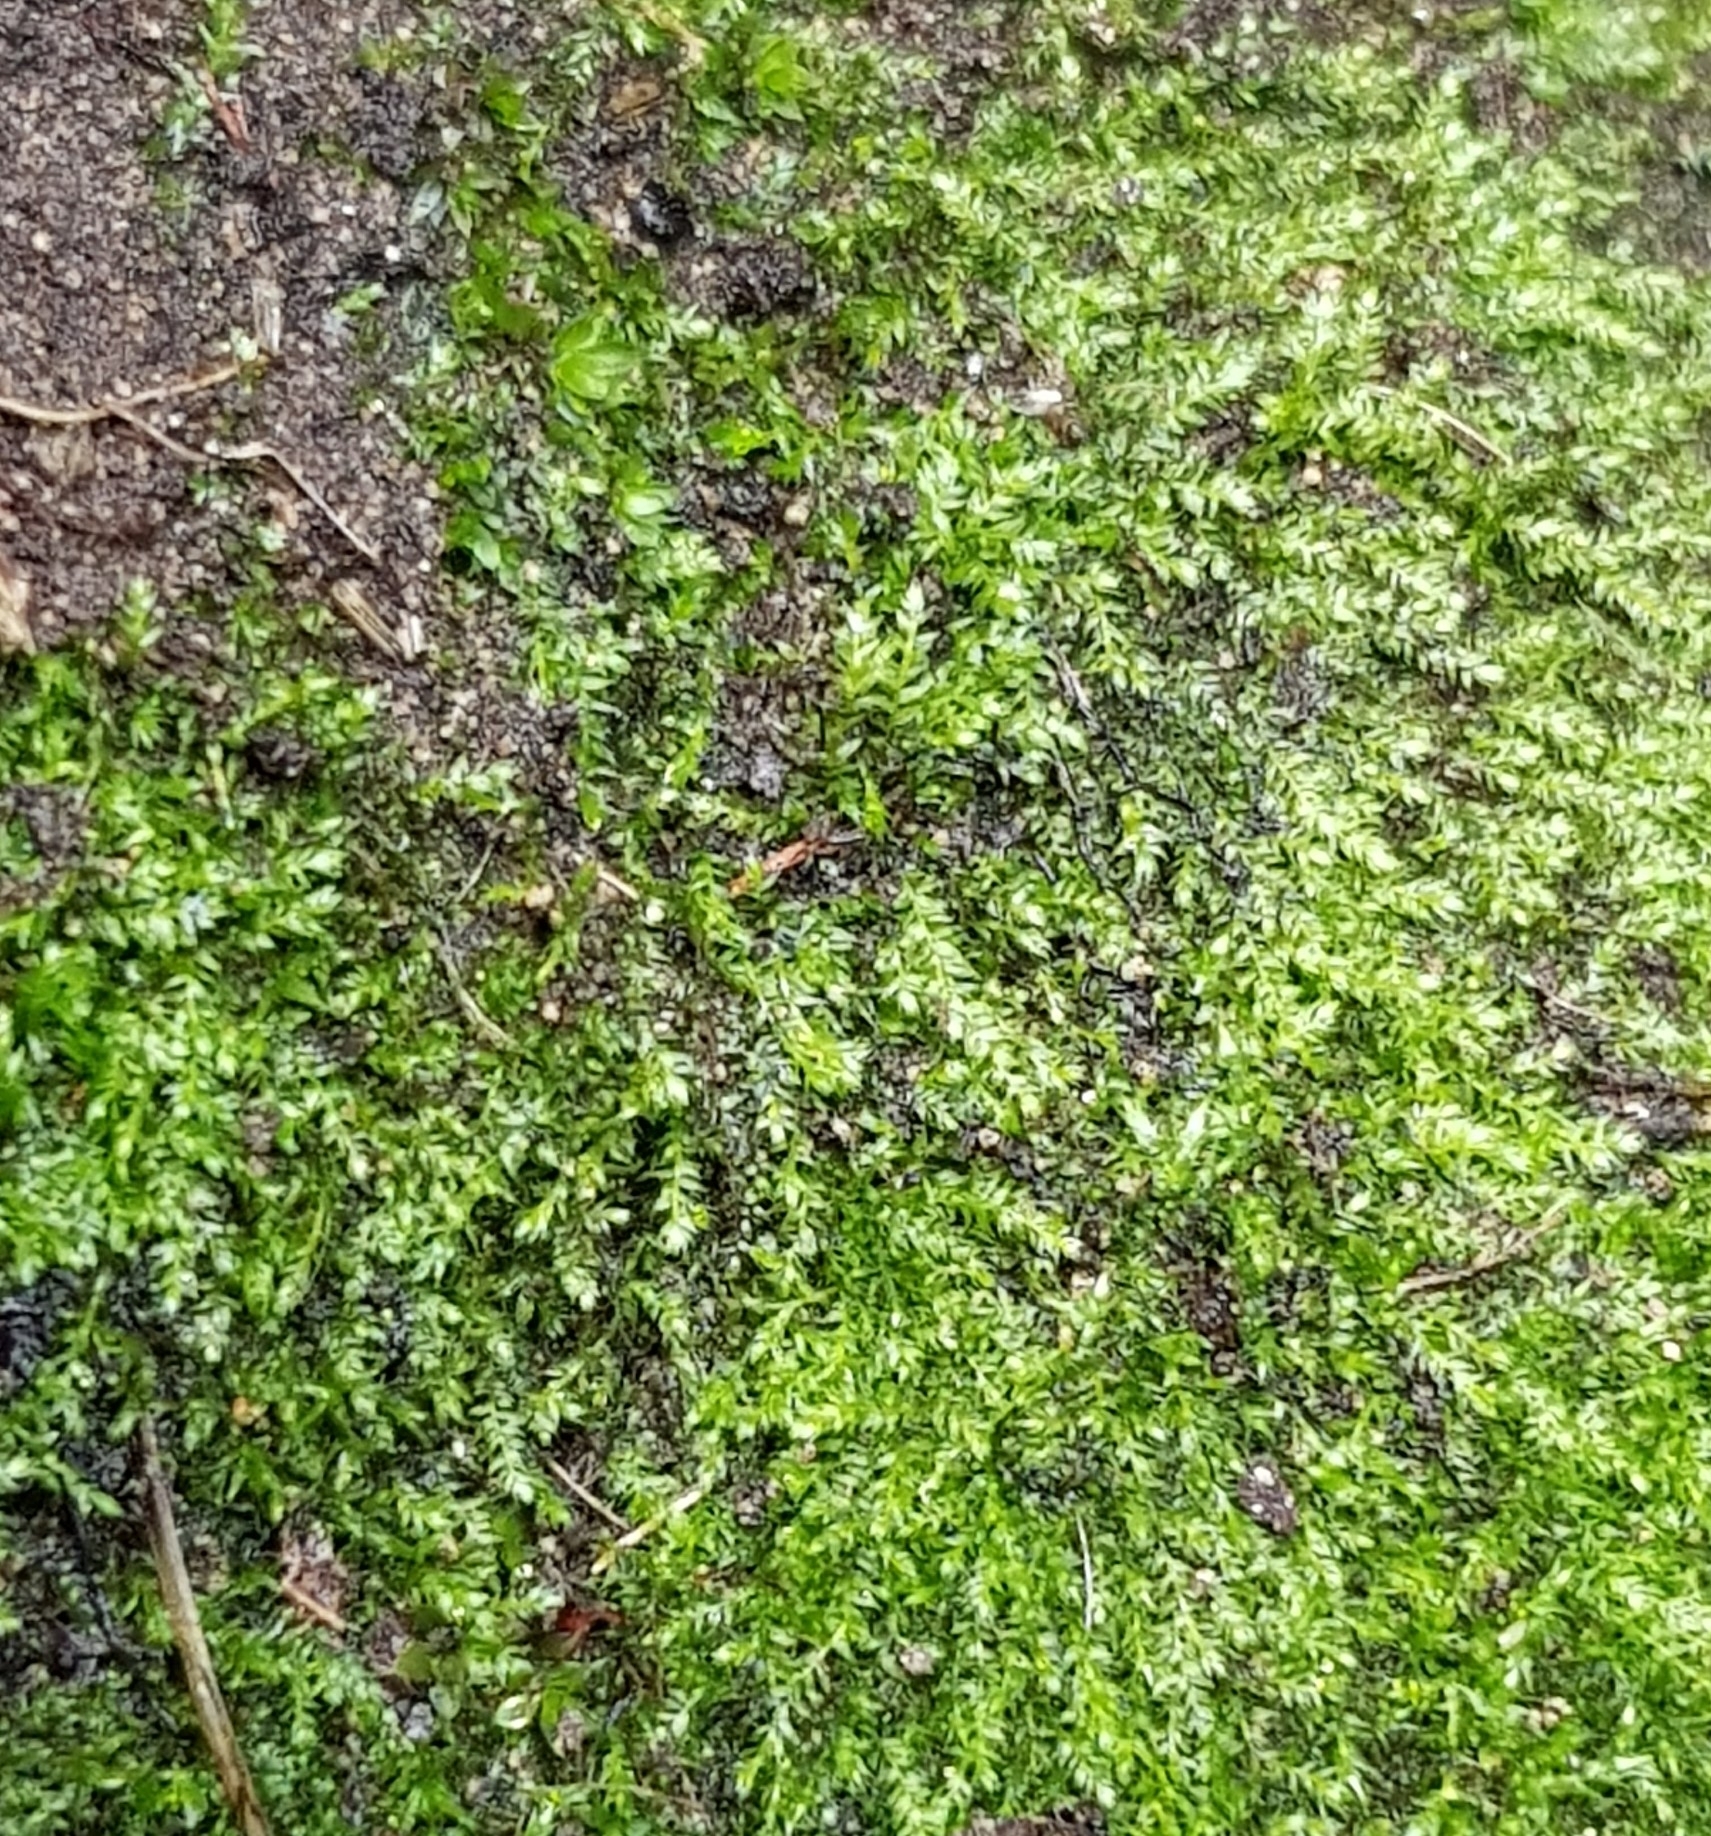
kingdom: Plantae
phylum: Bryophyta
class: Bryopsida
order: Hypnales
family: Brachytheciaceae
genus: Microeurhynchium
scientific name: Microeurhynchium pumilum
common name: Dwarf feather-moss
